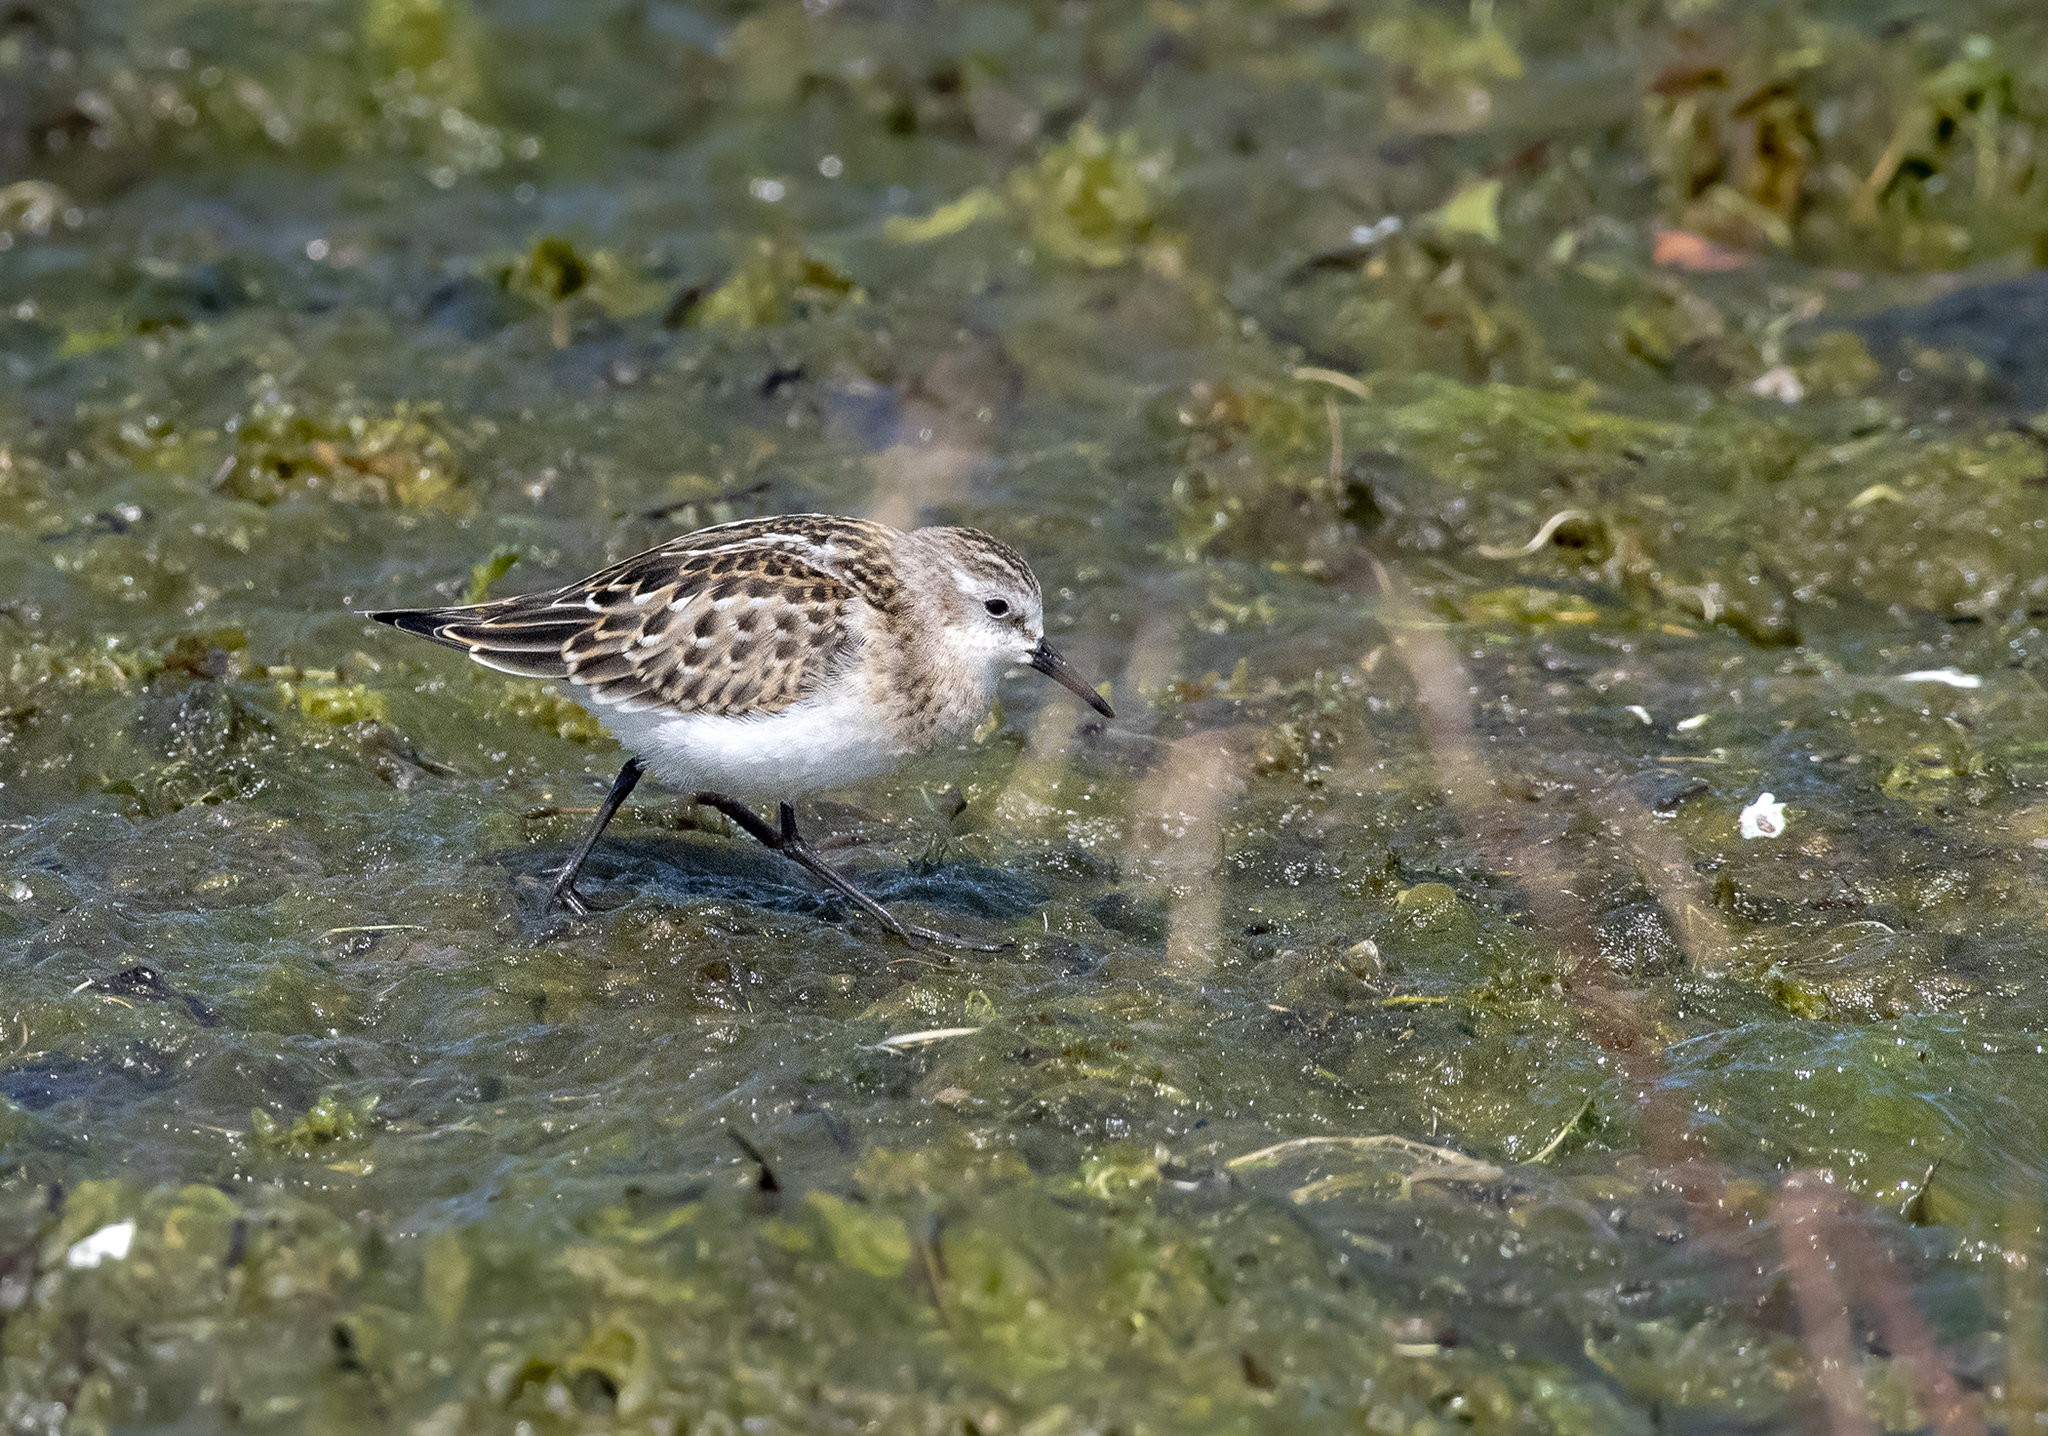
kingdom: Animalia
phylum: Chordata
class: Aves
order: Charadriiformes
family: Scolopacidae
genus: Calidris
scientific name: Calidris minuta
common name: Little stint
